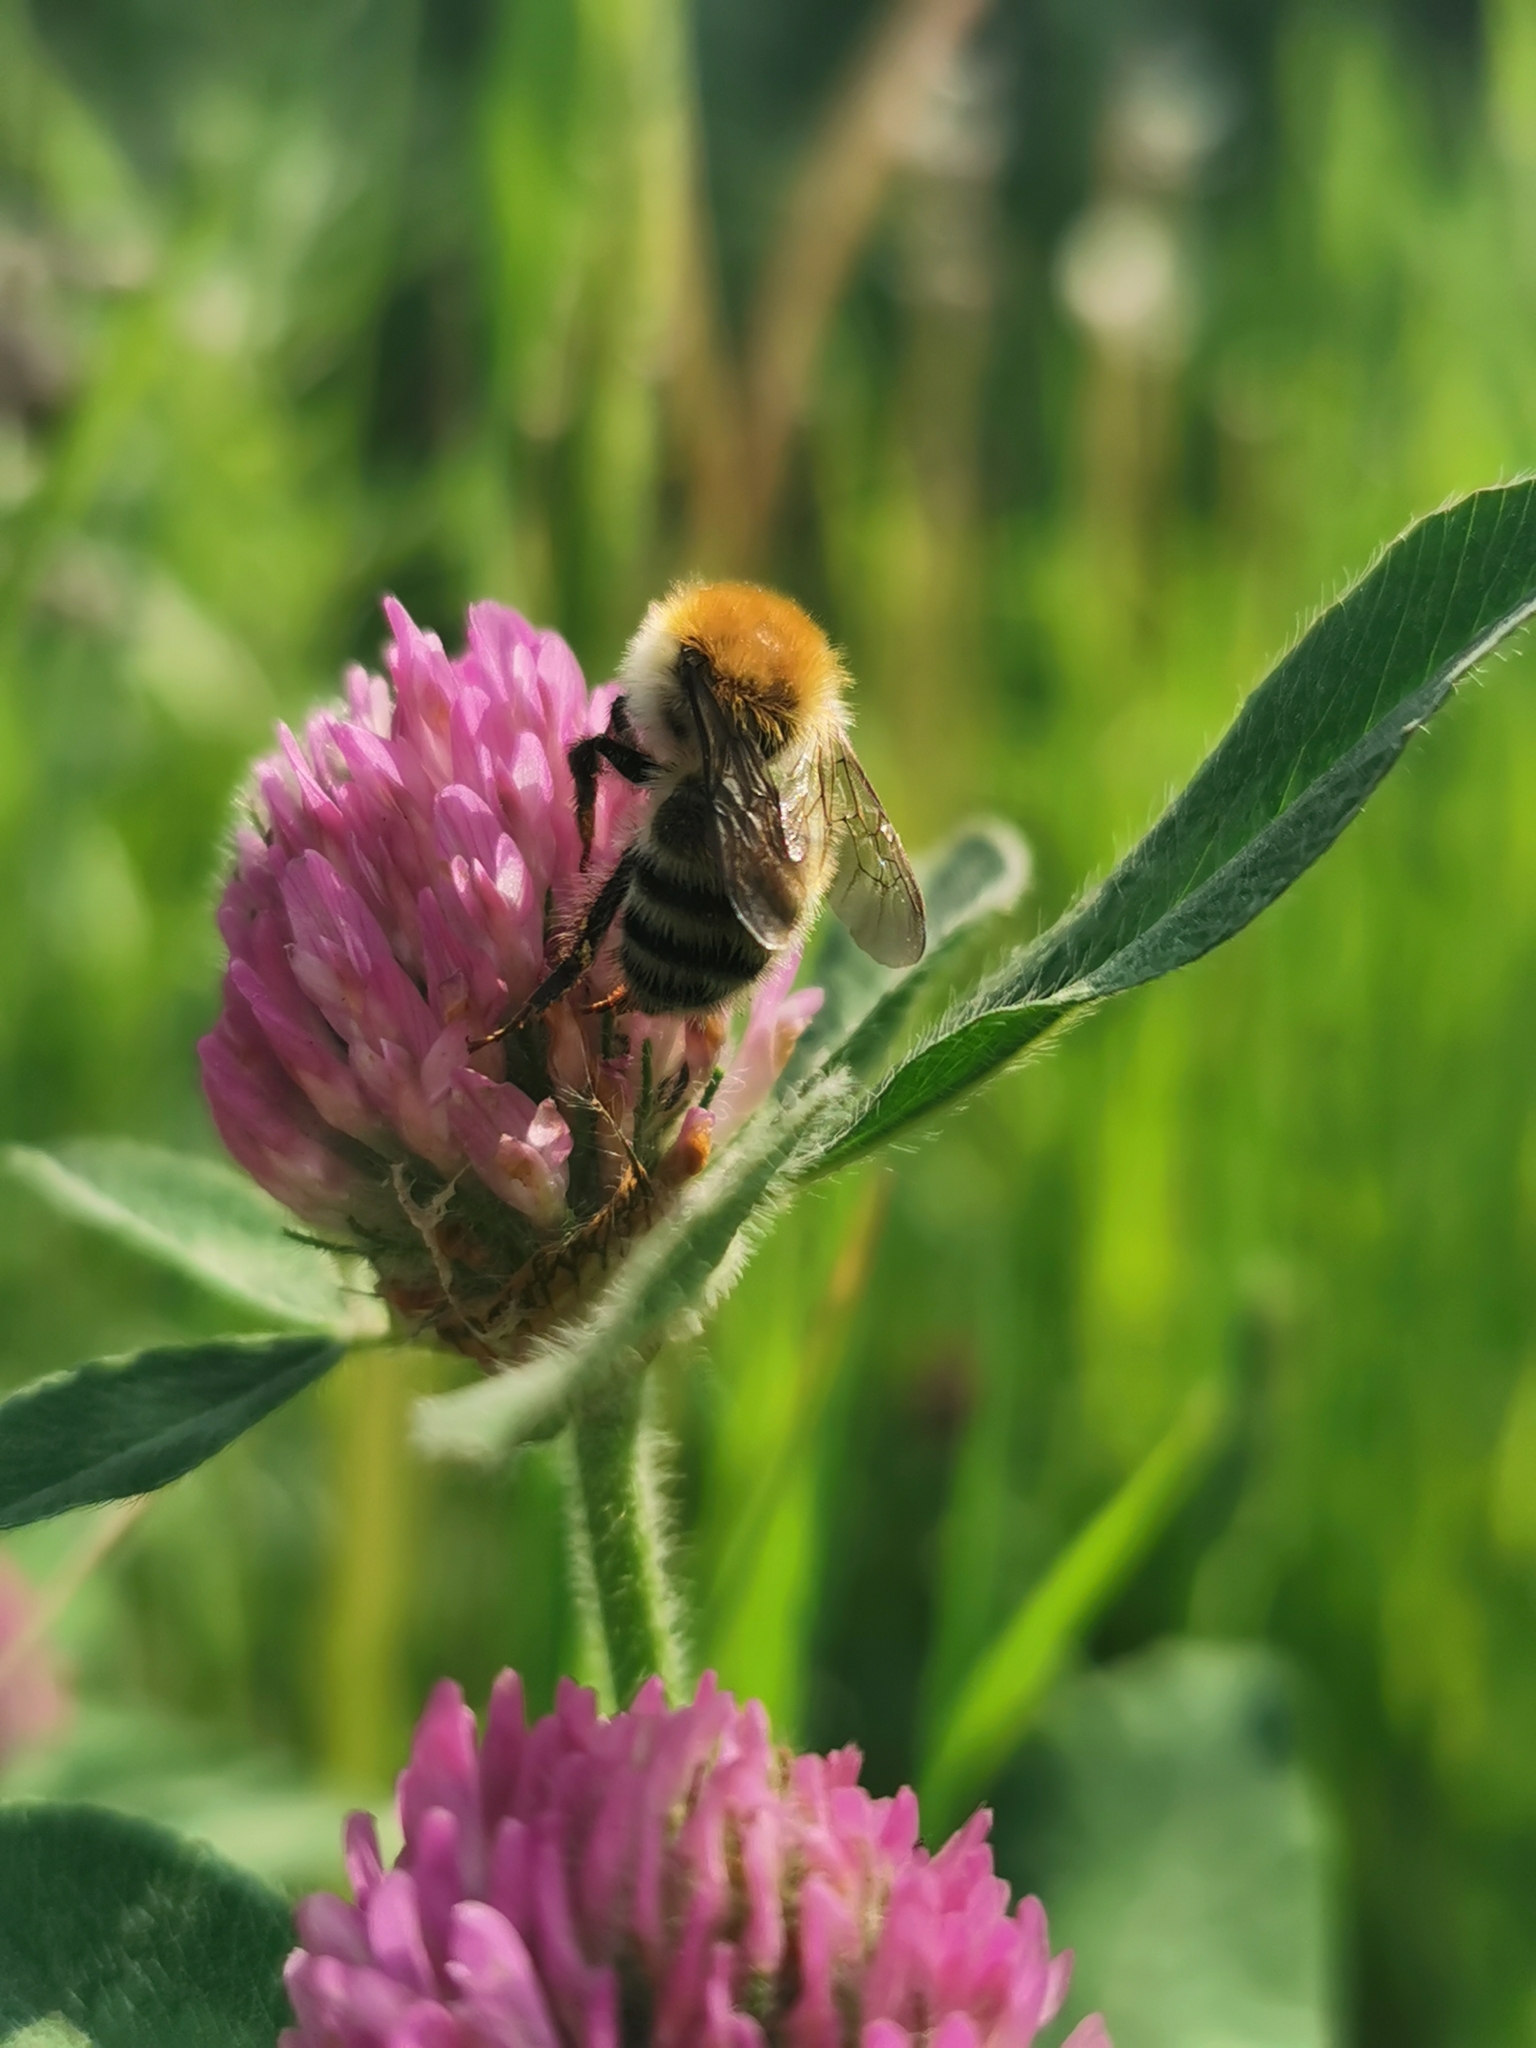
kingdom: Animalia
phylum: Arthropoda
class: Insecta
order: Hymenoptera
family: Apidae
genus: Bombus
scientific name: Bombus schrencki
